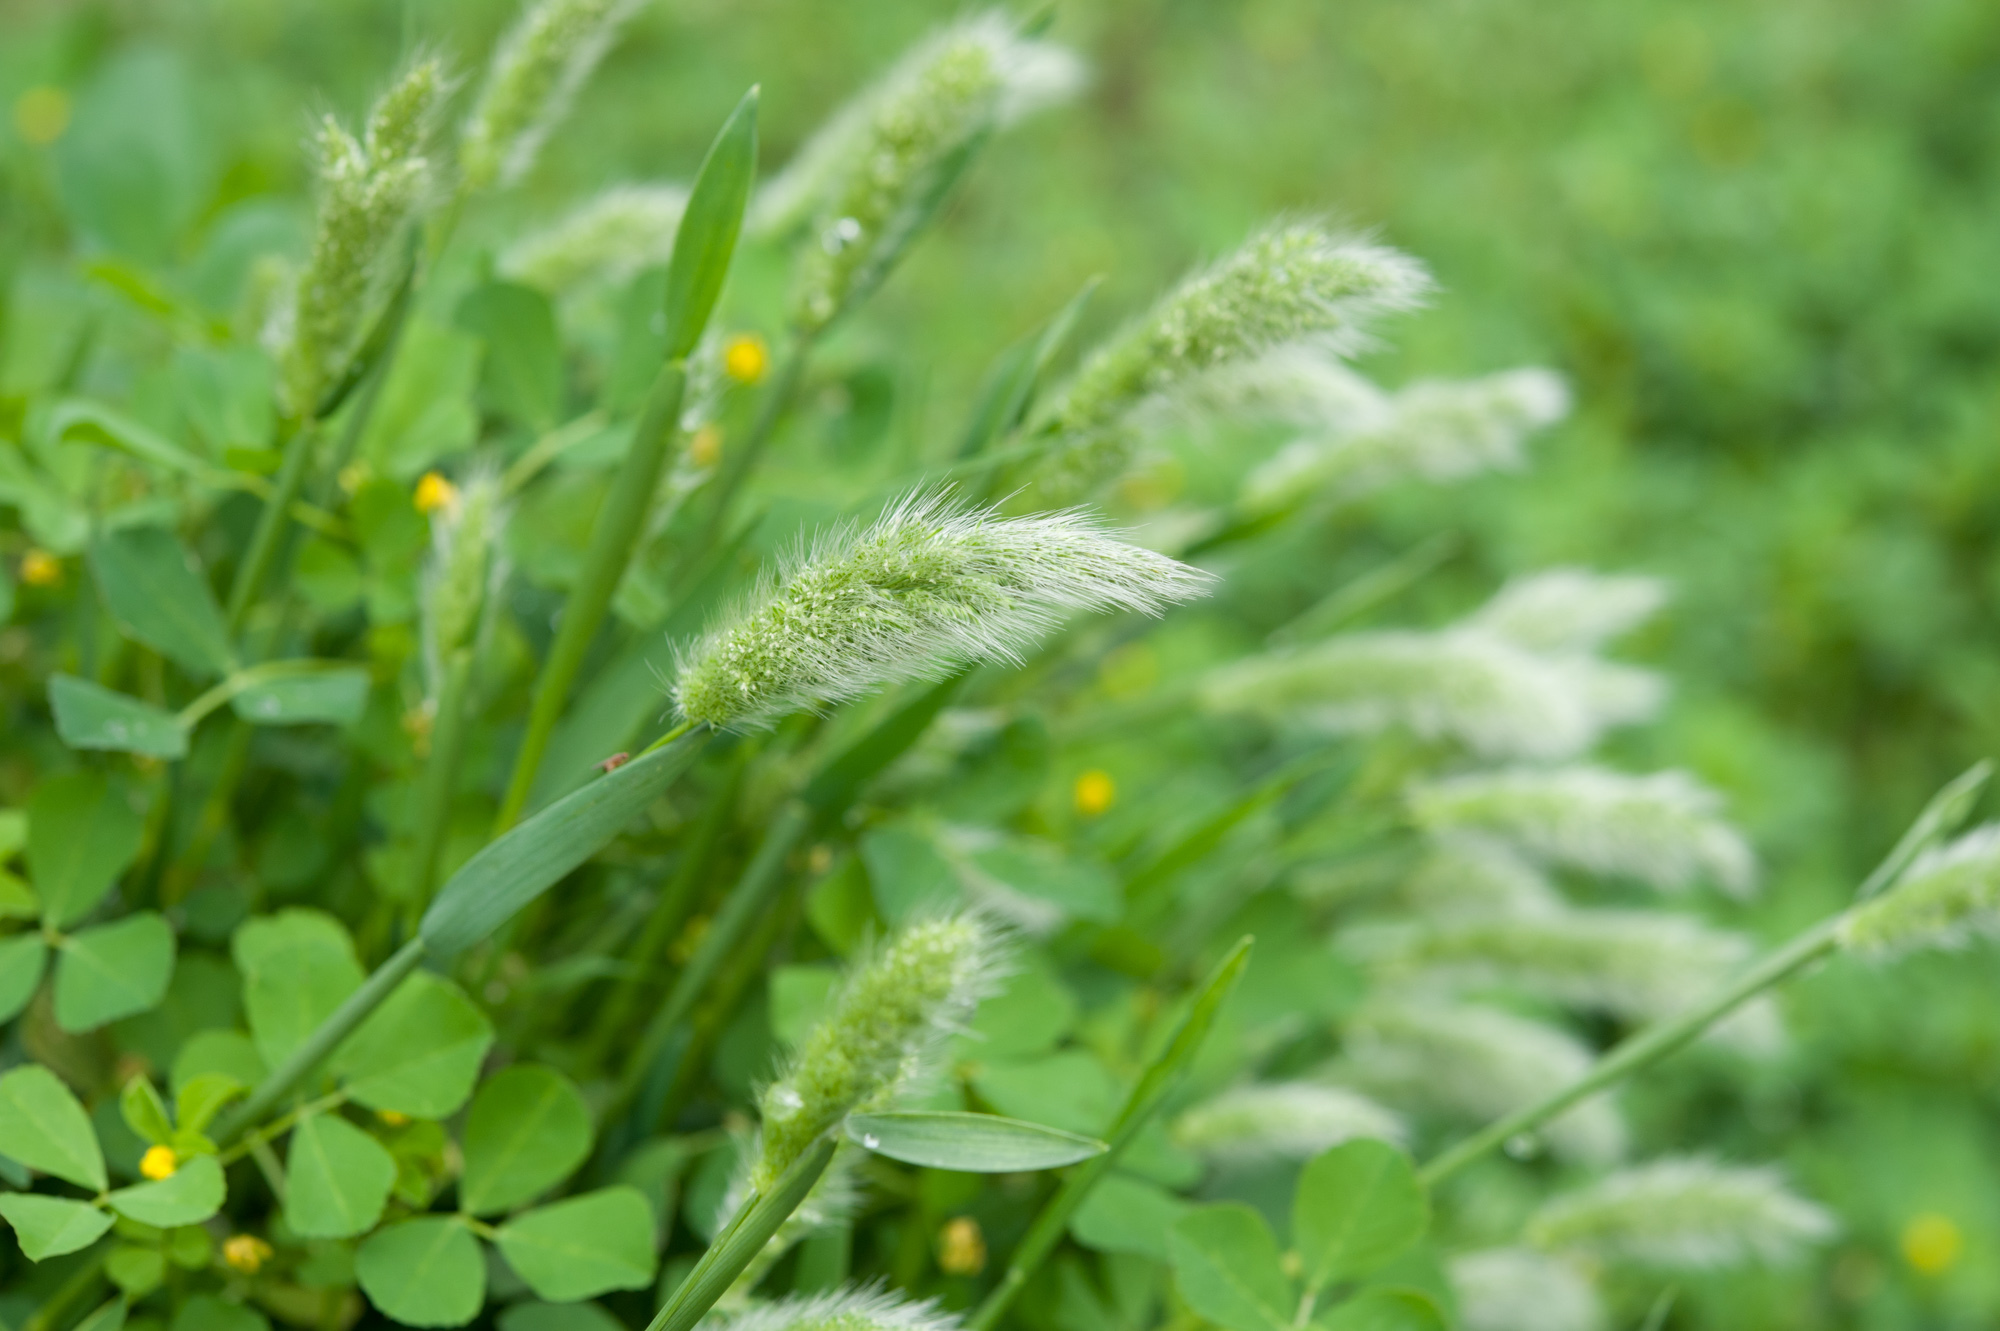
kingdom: Plantae
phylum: Tracheophyta
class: Liliopsida
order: Poales
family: Poaceae
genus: Polypogon
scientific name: Polypogon monspeliensis
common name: Annual rabbitsfoot grass
